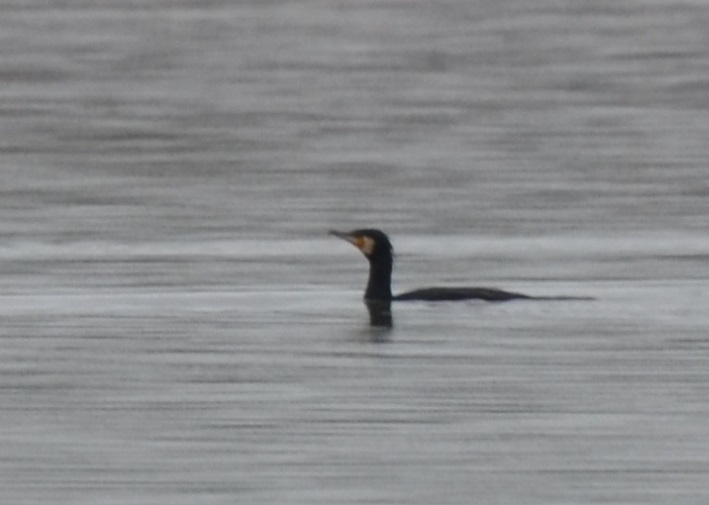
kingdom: Animalia
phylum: Chordata
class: Aves
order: Suliformes
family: Phalacrocoracidae
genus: Phalacrocorax
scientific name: Phalacrocorax carbo
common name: Great cormorant
